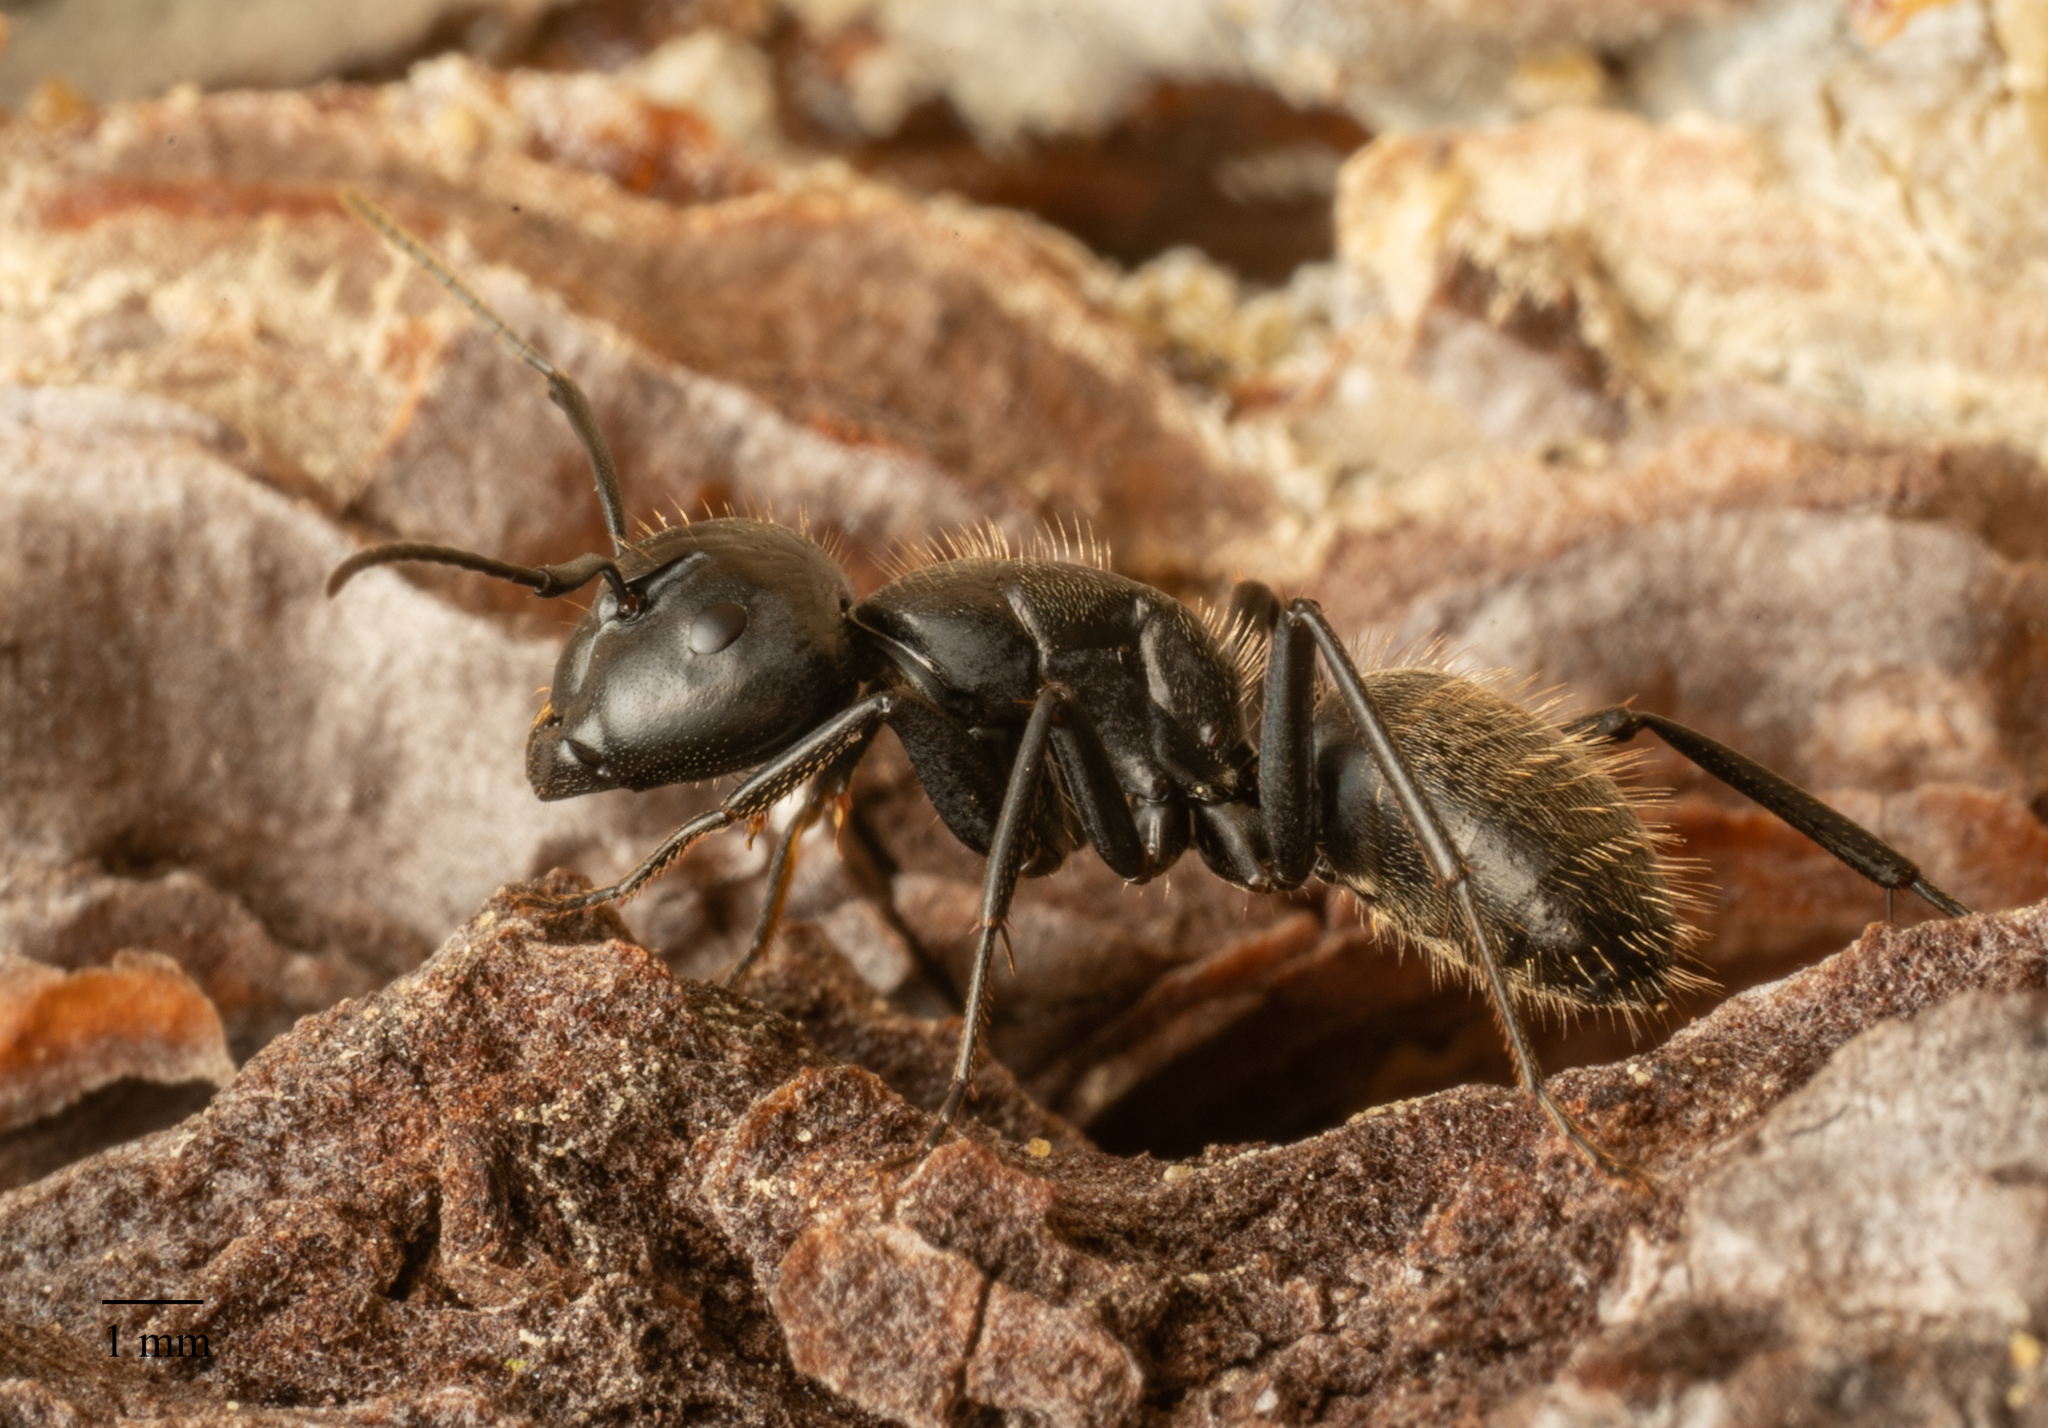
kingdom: Animalia
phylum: Arthropoda
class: Insecta
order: Hymenoptera
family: Formicidae
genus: Camponotus
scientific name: Camponotus vagus
